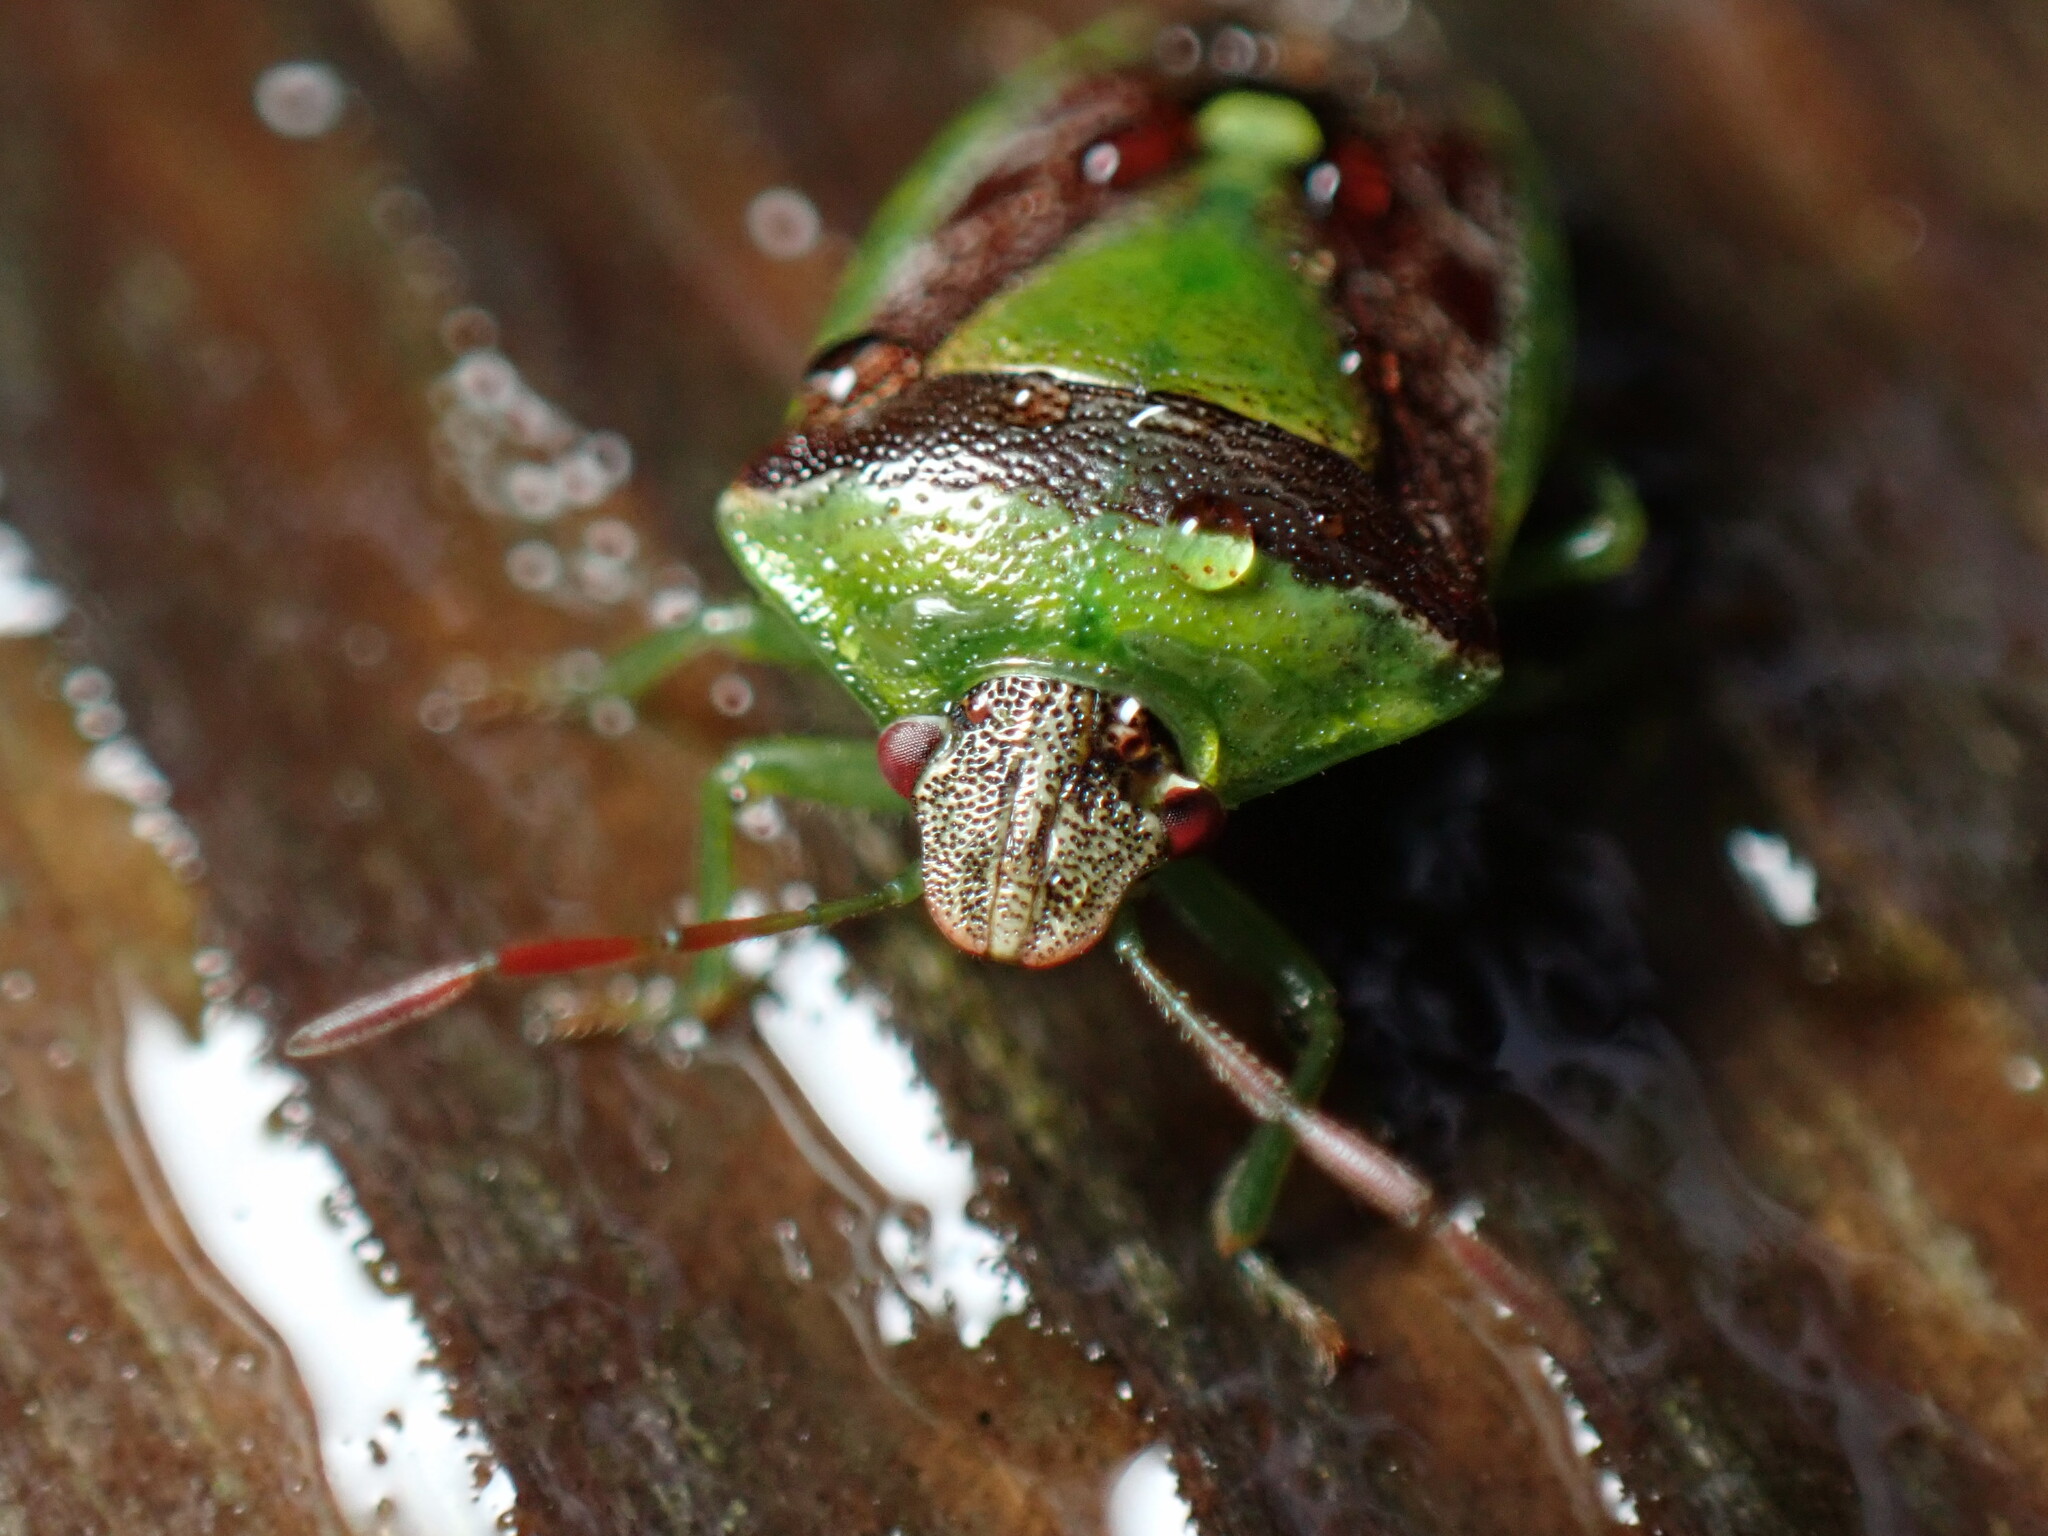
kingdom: Animalia
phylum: Arthropoda
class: Insecta
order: Hemiptera
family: Pentatomidae
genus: Banasa
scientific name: Banasa dimidiata
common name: Green burgundy stink bug
